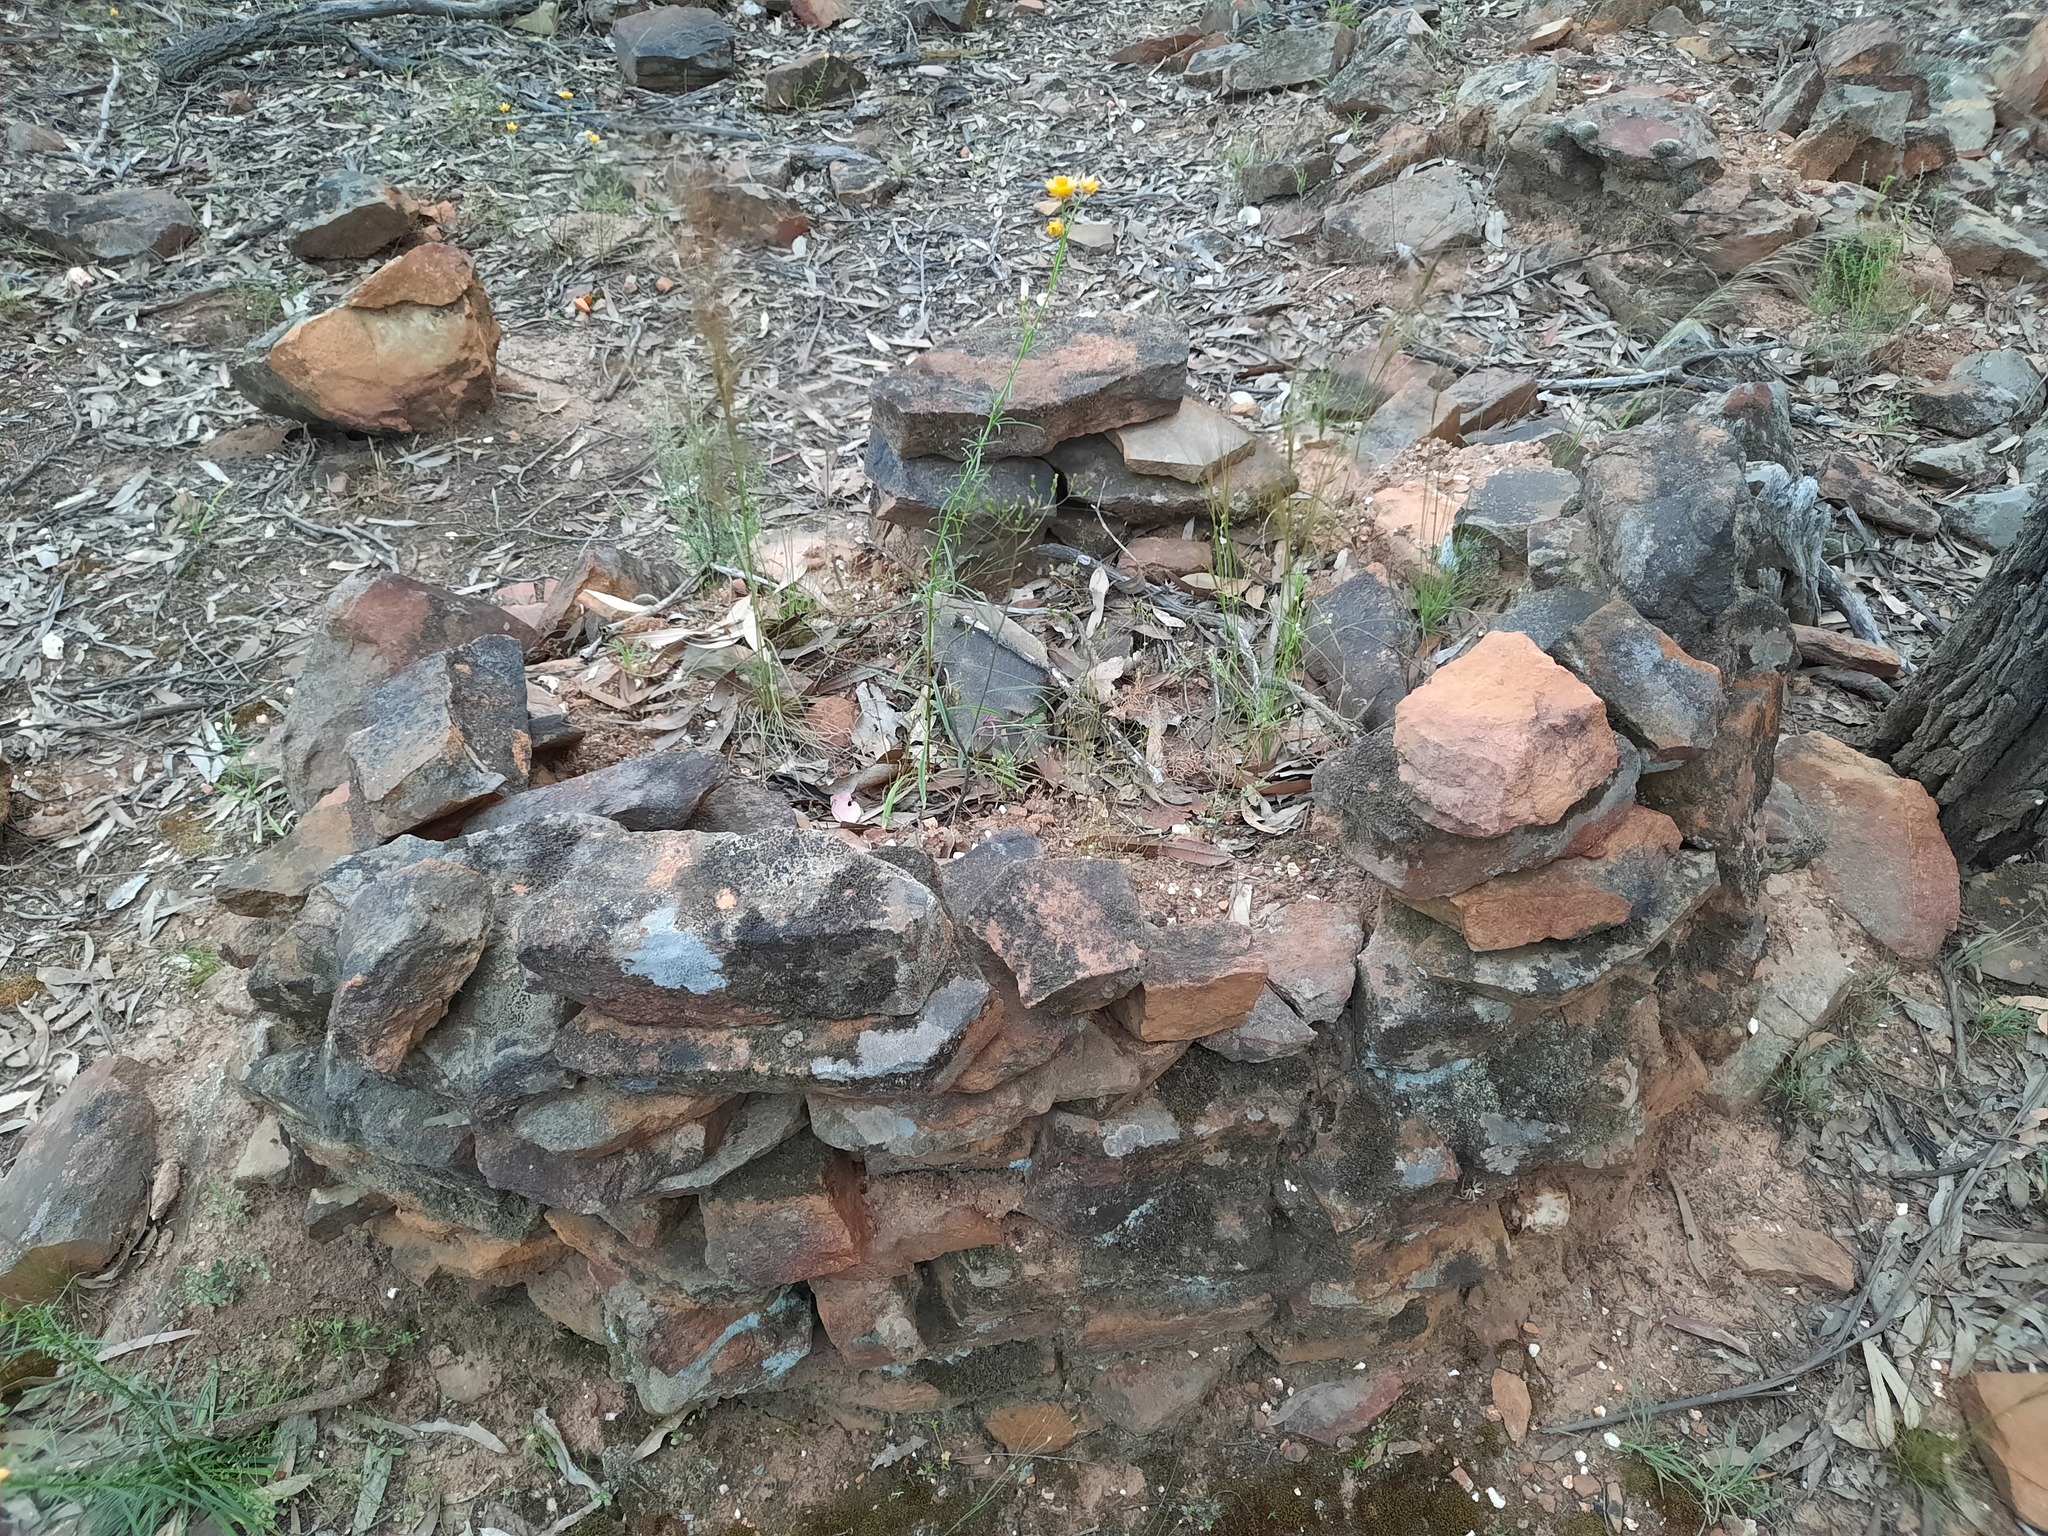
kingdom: Plantae
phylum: Tracheophyta
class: Magnoliopsida
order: Asterales
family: Asteraceae
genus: Xerochrysum
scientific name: Xerochrysum viscosum
